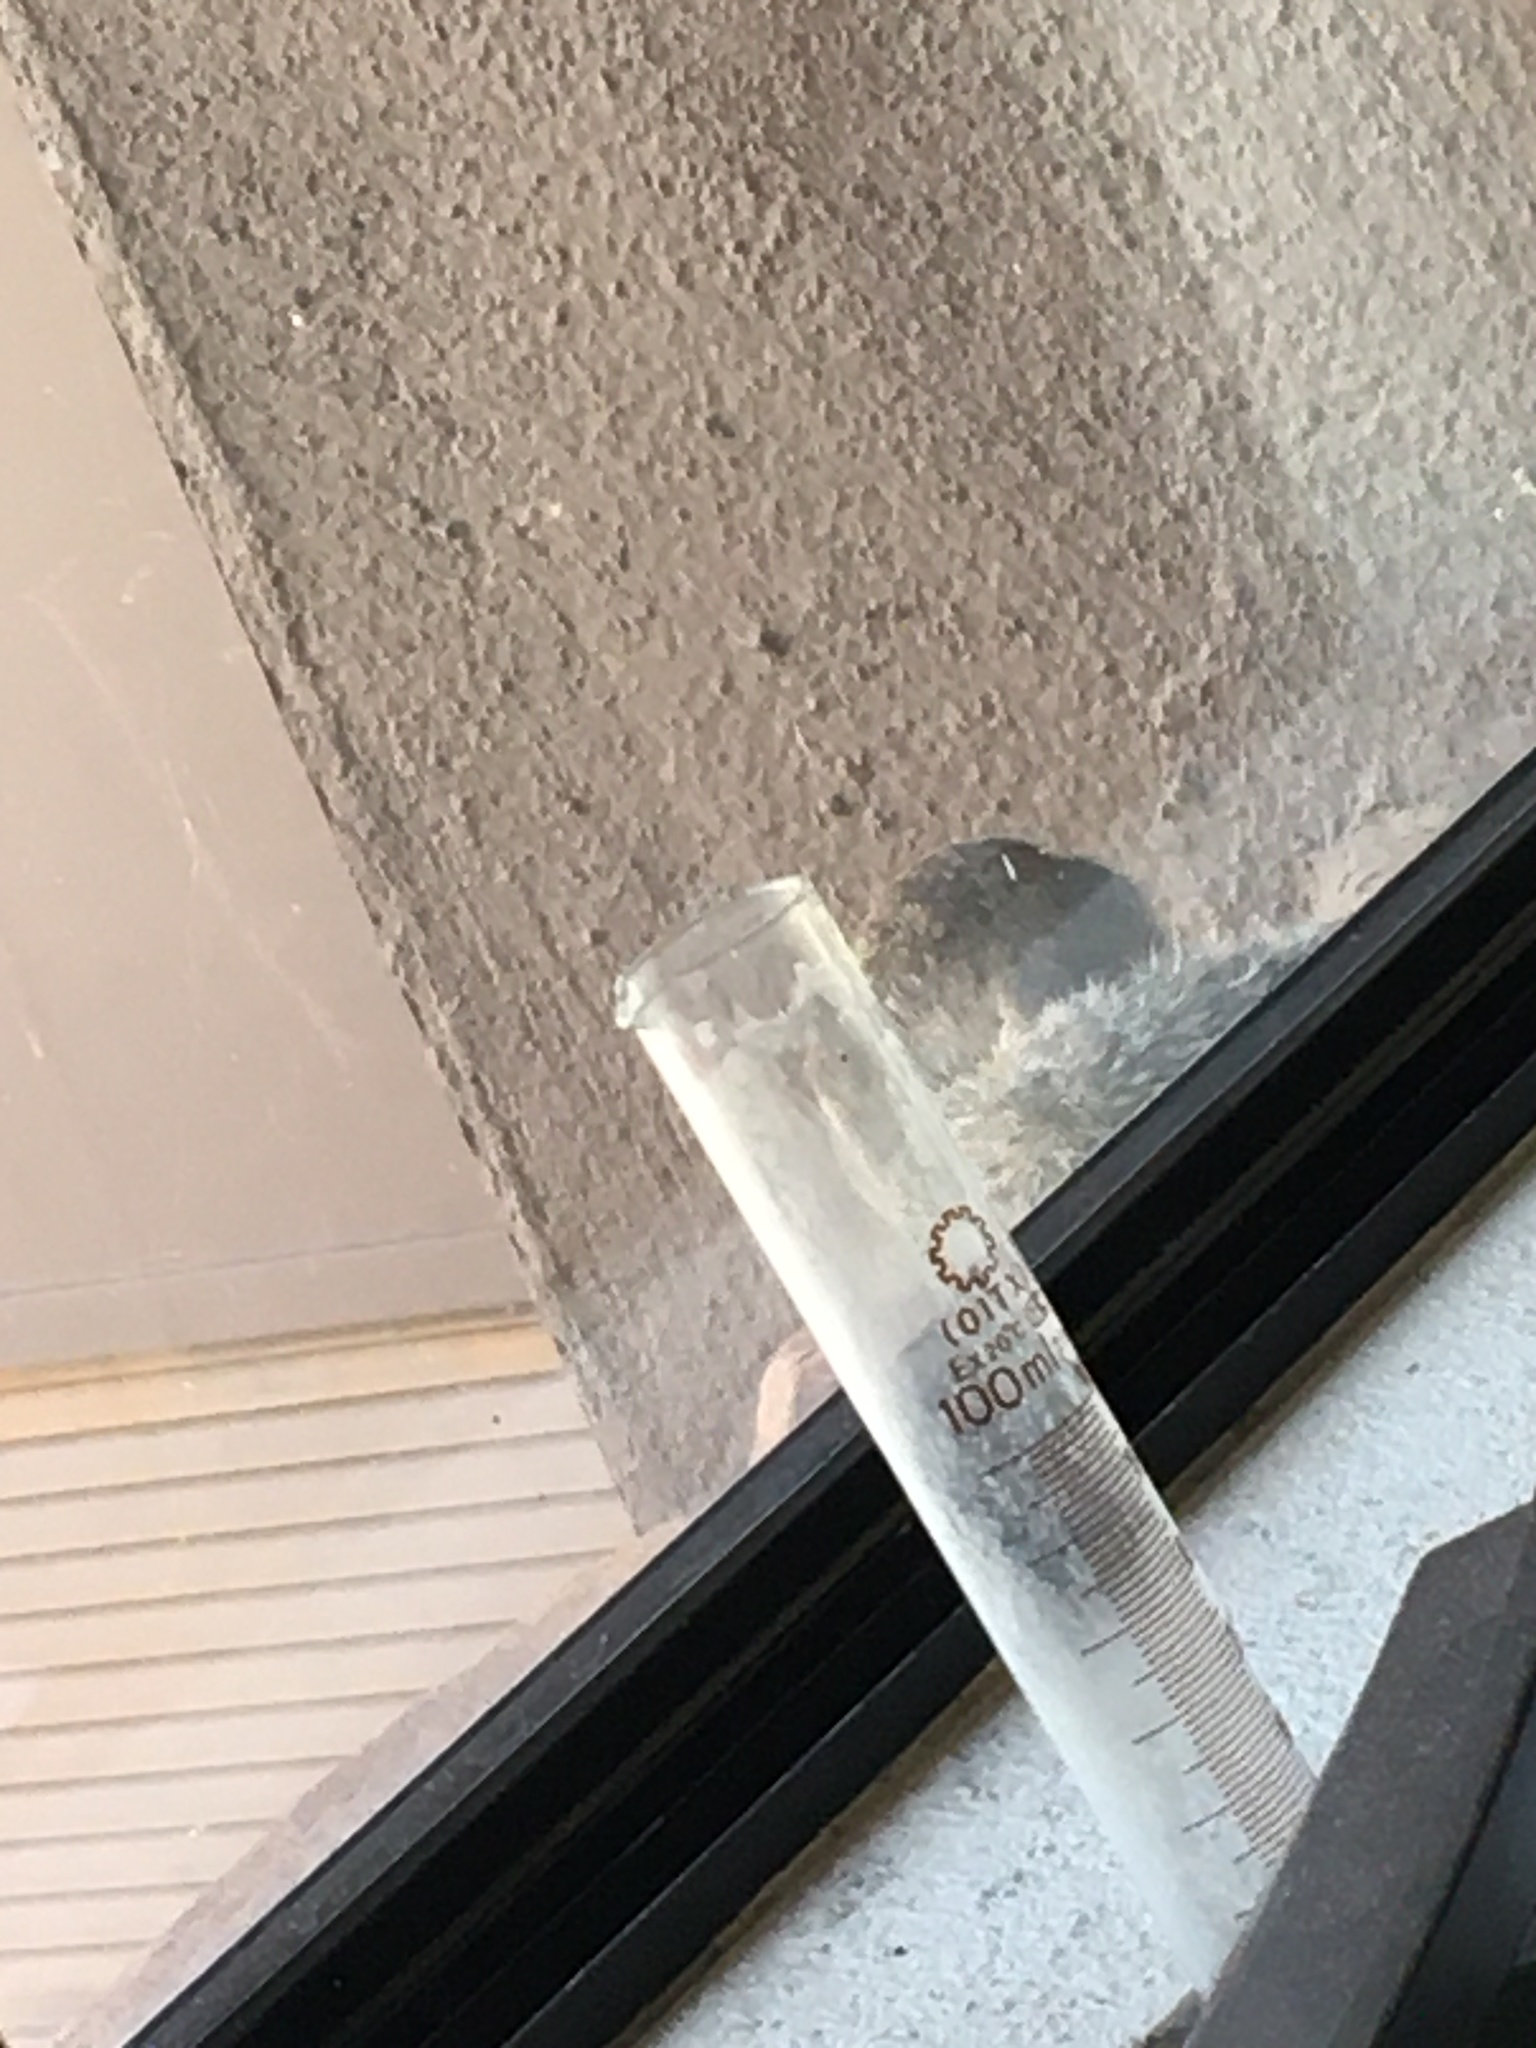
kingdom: Animalia
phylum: Chordata
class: Mammalia
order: Rodentia
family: Sciuridae
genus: Otospermophilus
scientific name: Otospermophilus variegatus
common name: Rock squirrel
